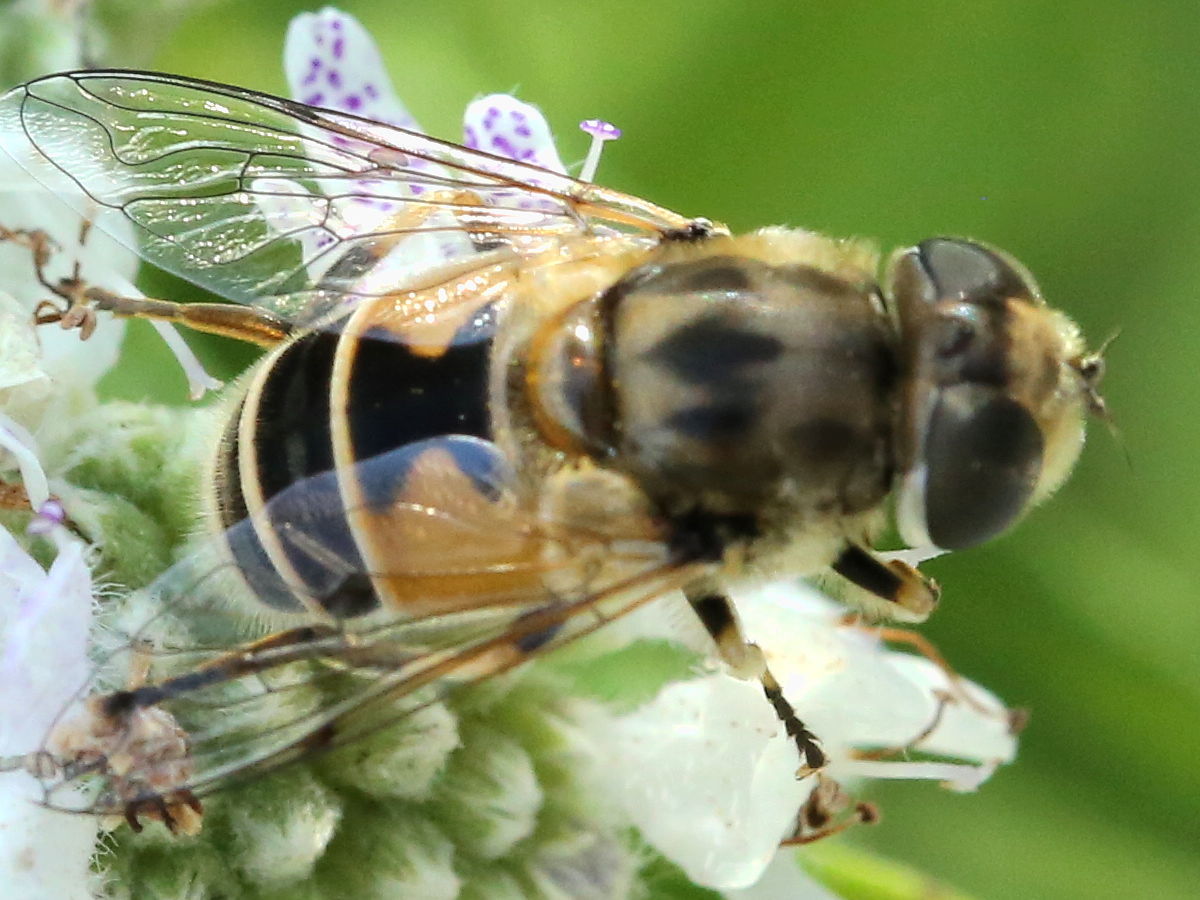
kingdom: Animalia
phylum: Arthropoda
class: Insecta
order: Diptera
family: Syrphidae
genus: Eristalis
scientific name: Eristalis arbustorum
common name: Hover fly
